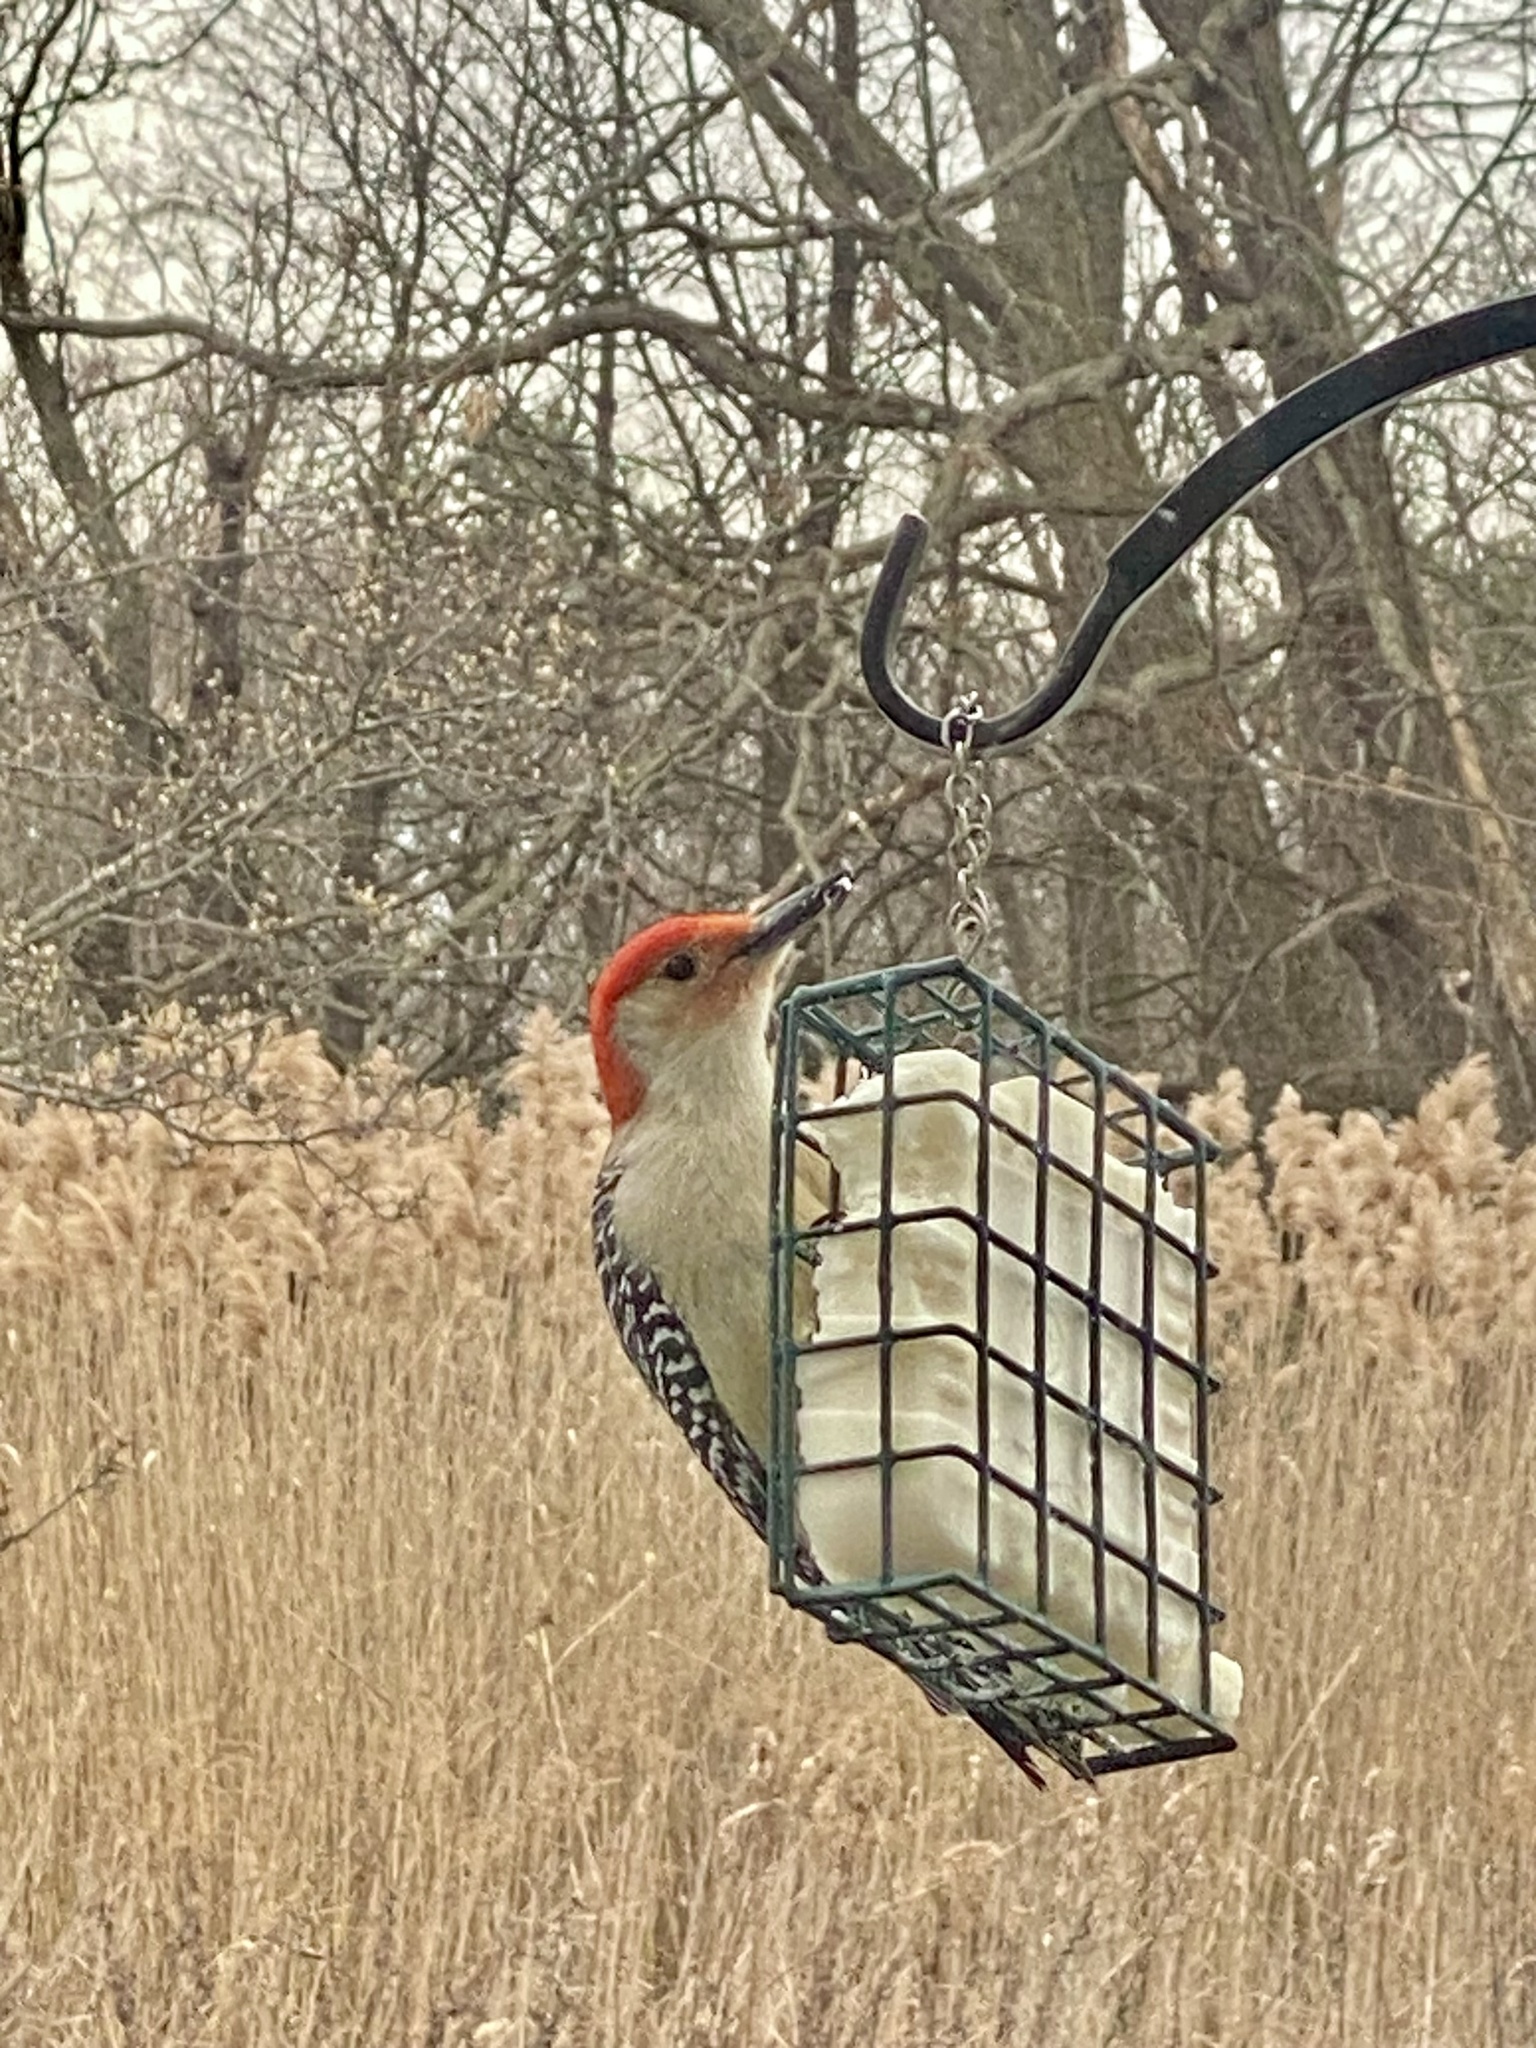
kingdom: Animalia
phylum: Chordata
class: Aves
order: Piciformes
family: Picidae
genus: Melanerpes
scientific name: Melanerpes carolinus
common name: Red-bellied woodpecker
